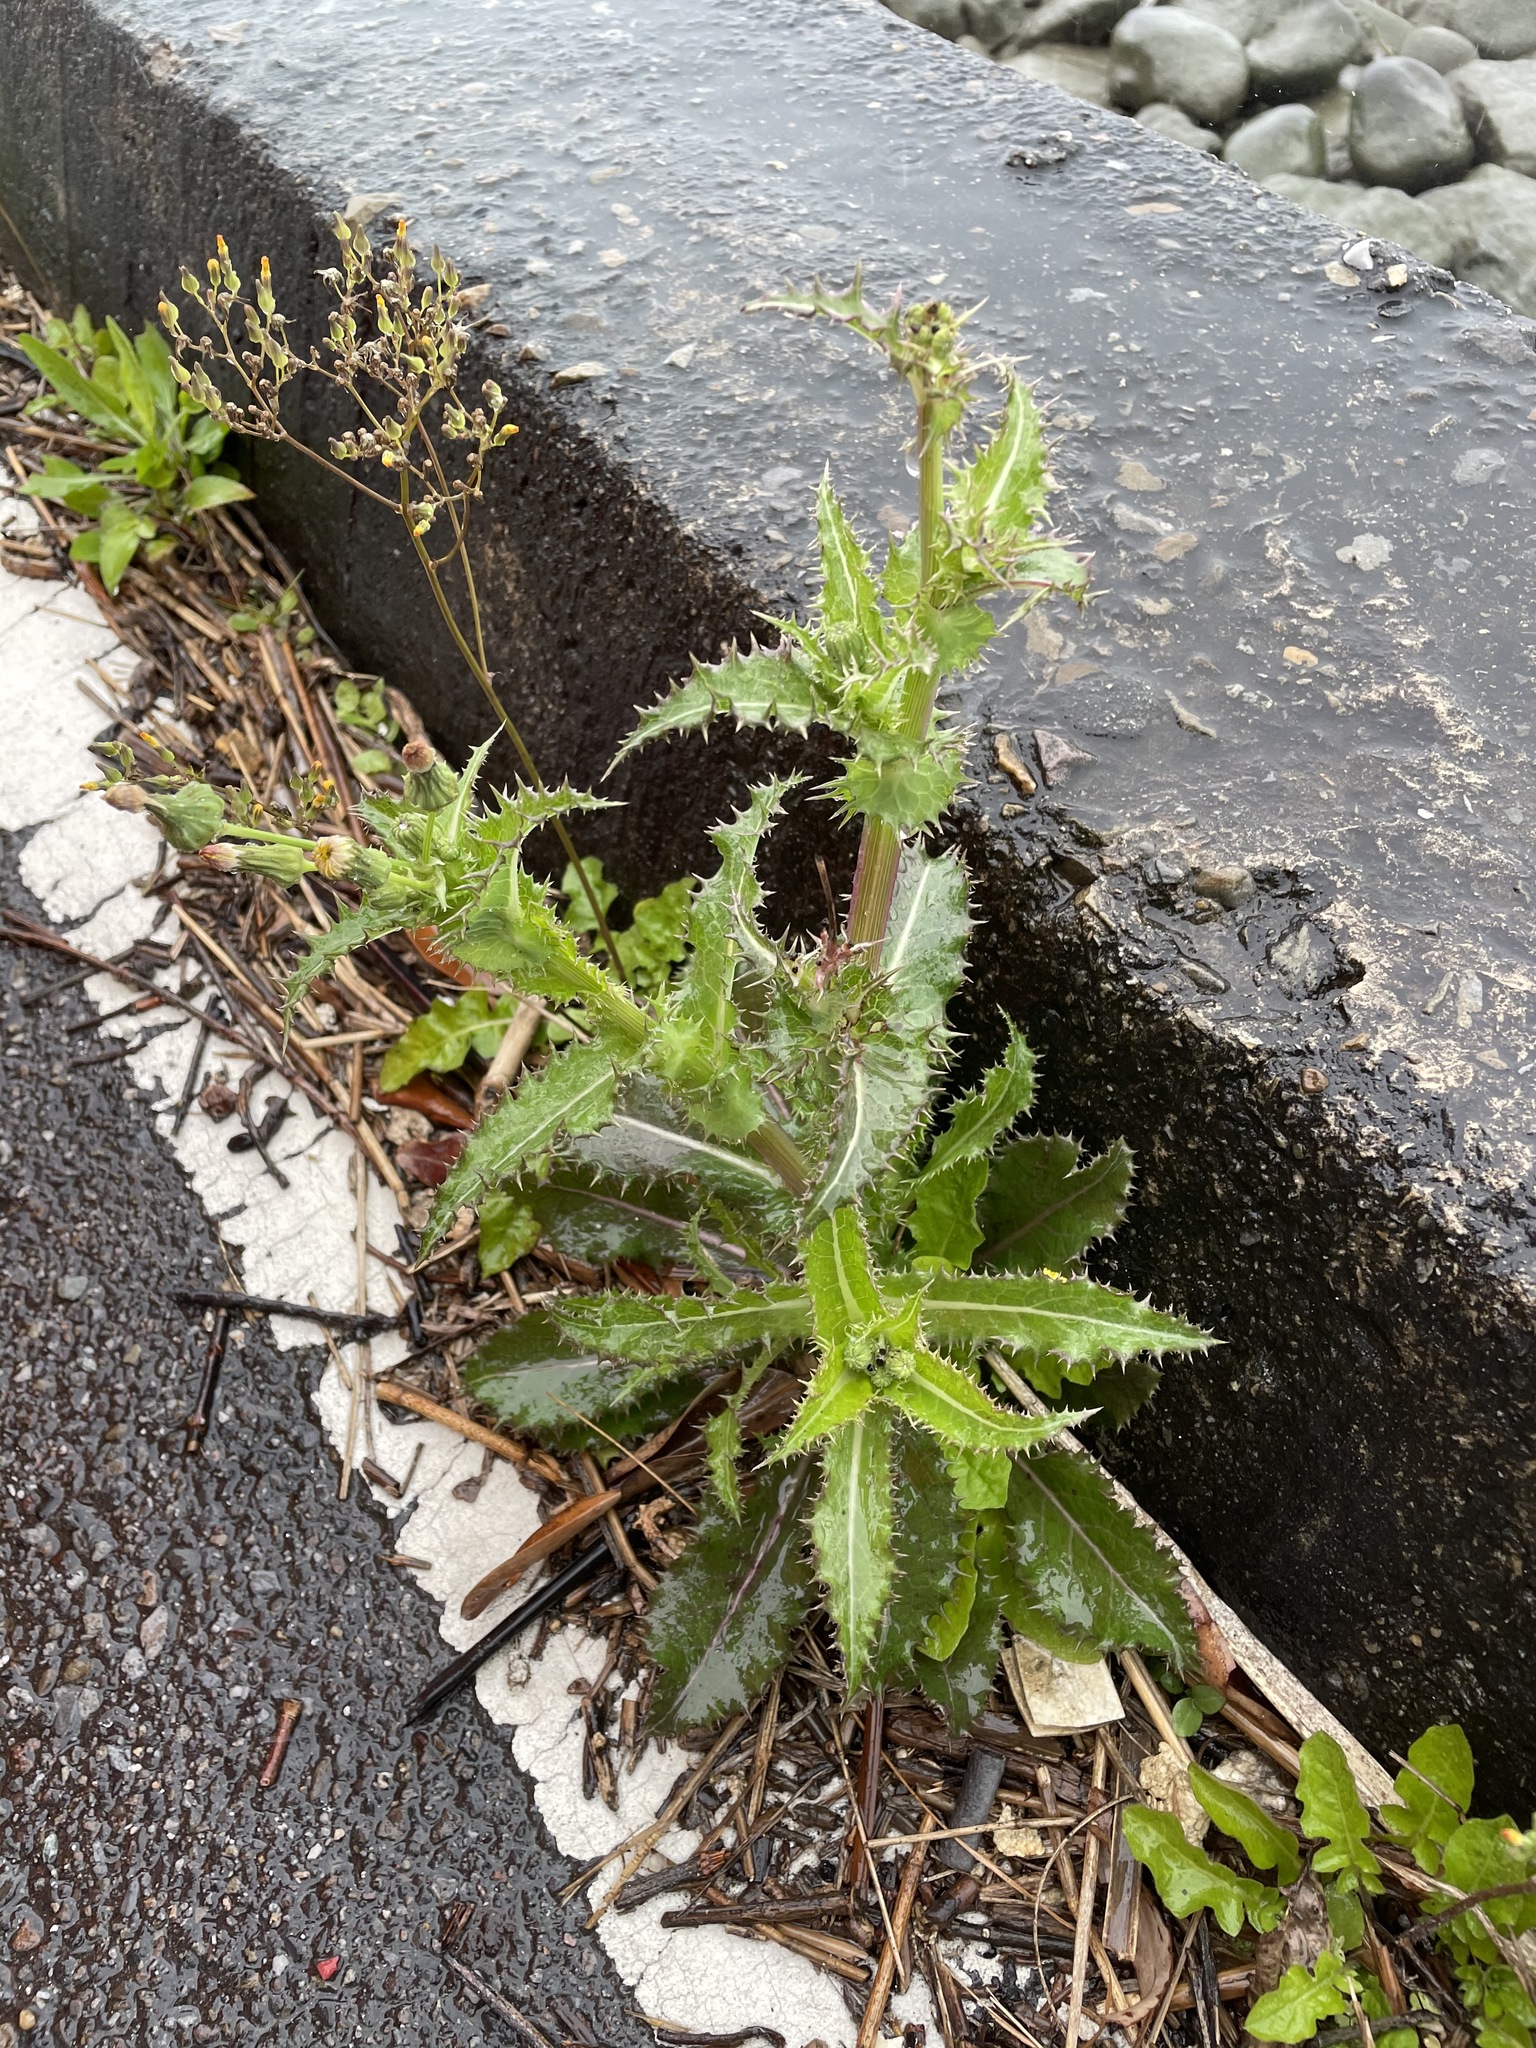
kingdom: Plantae
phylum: Tracheophyta
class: Magnoliopsida
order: Asterales
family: Asteraceae
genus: Sonchus
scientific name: Sonchus asper
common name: Prickly sow-thistle
